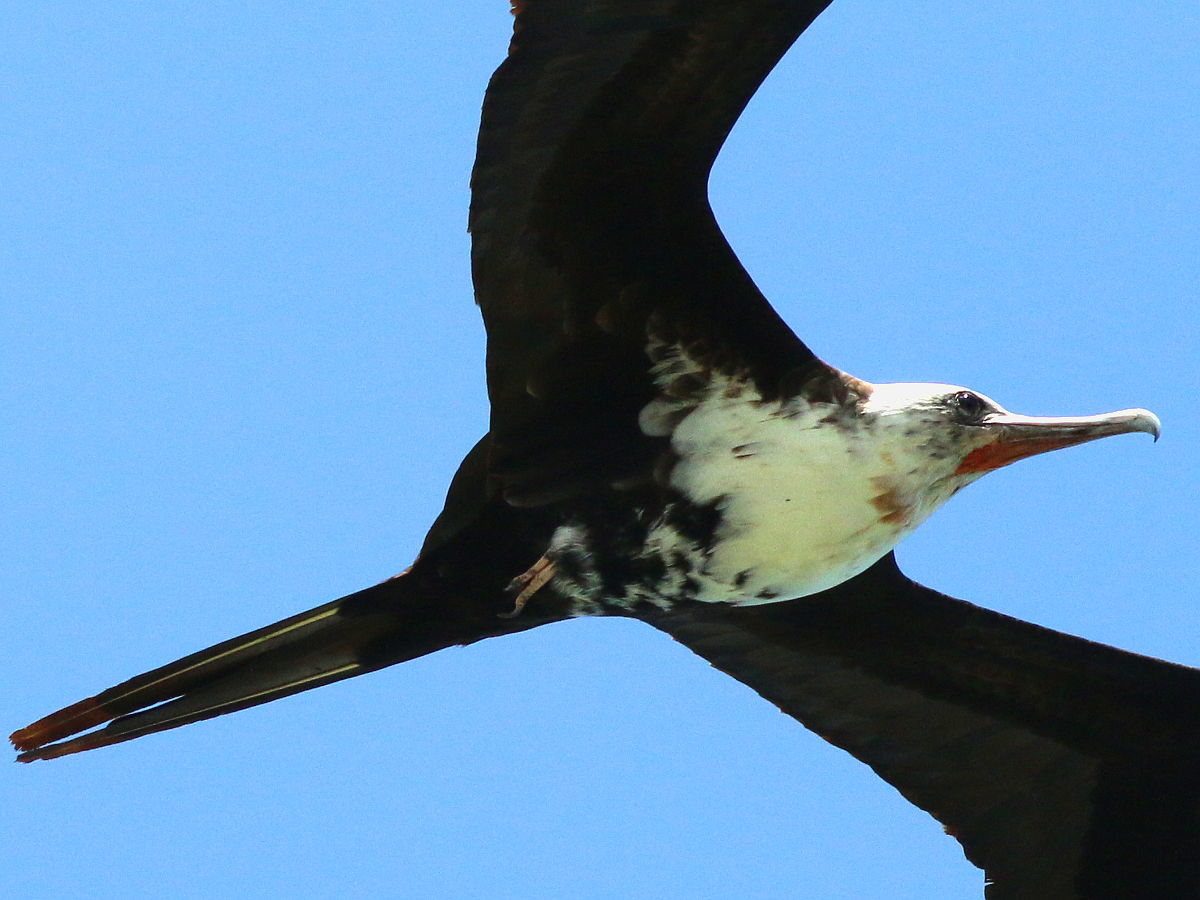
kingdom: Animalia
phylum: Chordata
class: Aves
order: Suliformes
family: Fregatidae
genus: Fregata
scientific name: Fregata minor
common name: Great frigatebird
